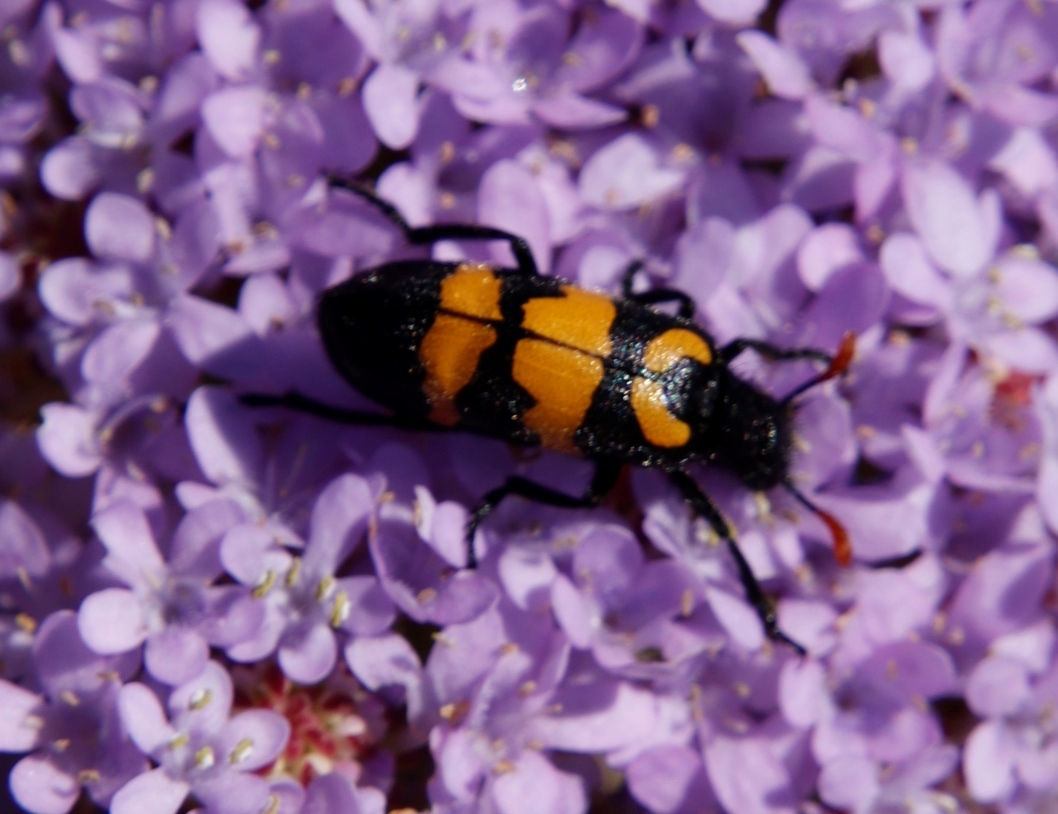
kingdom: Animalia
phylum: Arthropoda
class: Insecta
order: Coleoptera
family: Meloidae
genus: Meloe
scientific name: Meloe lunata
